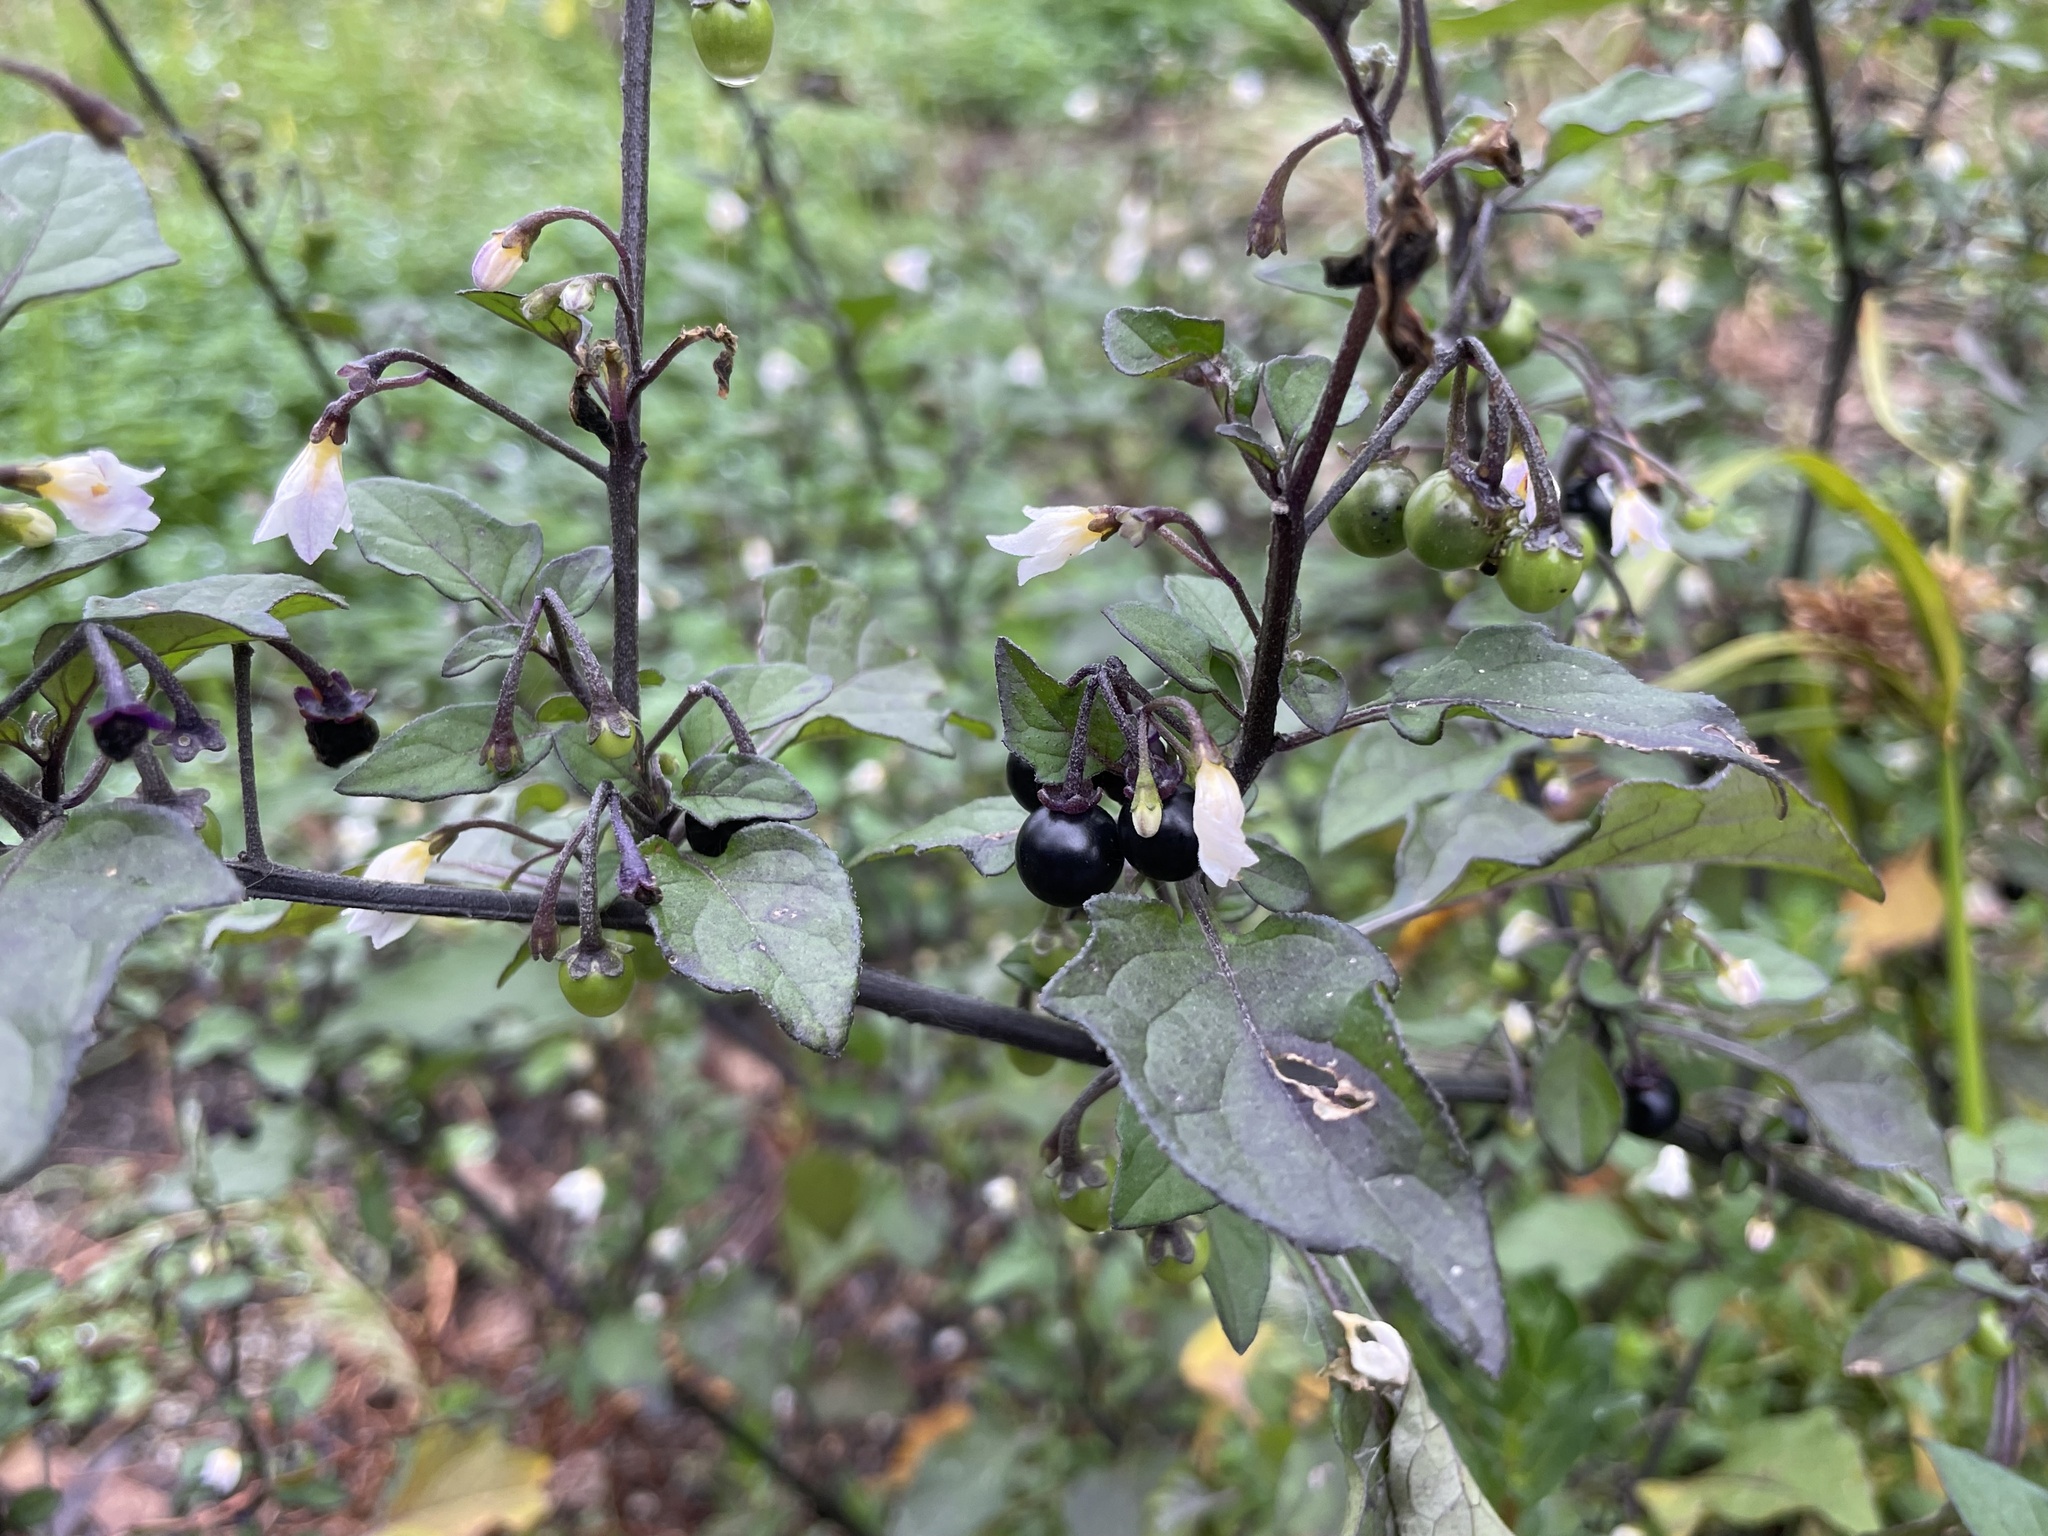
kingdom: Plantae
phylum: Tracheophyta
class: Magnoliopsida
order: Solanales
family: Solanaceae
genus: Solanum
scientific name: Solanum nigrum
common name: Black nightshade
